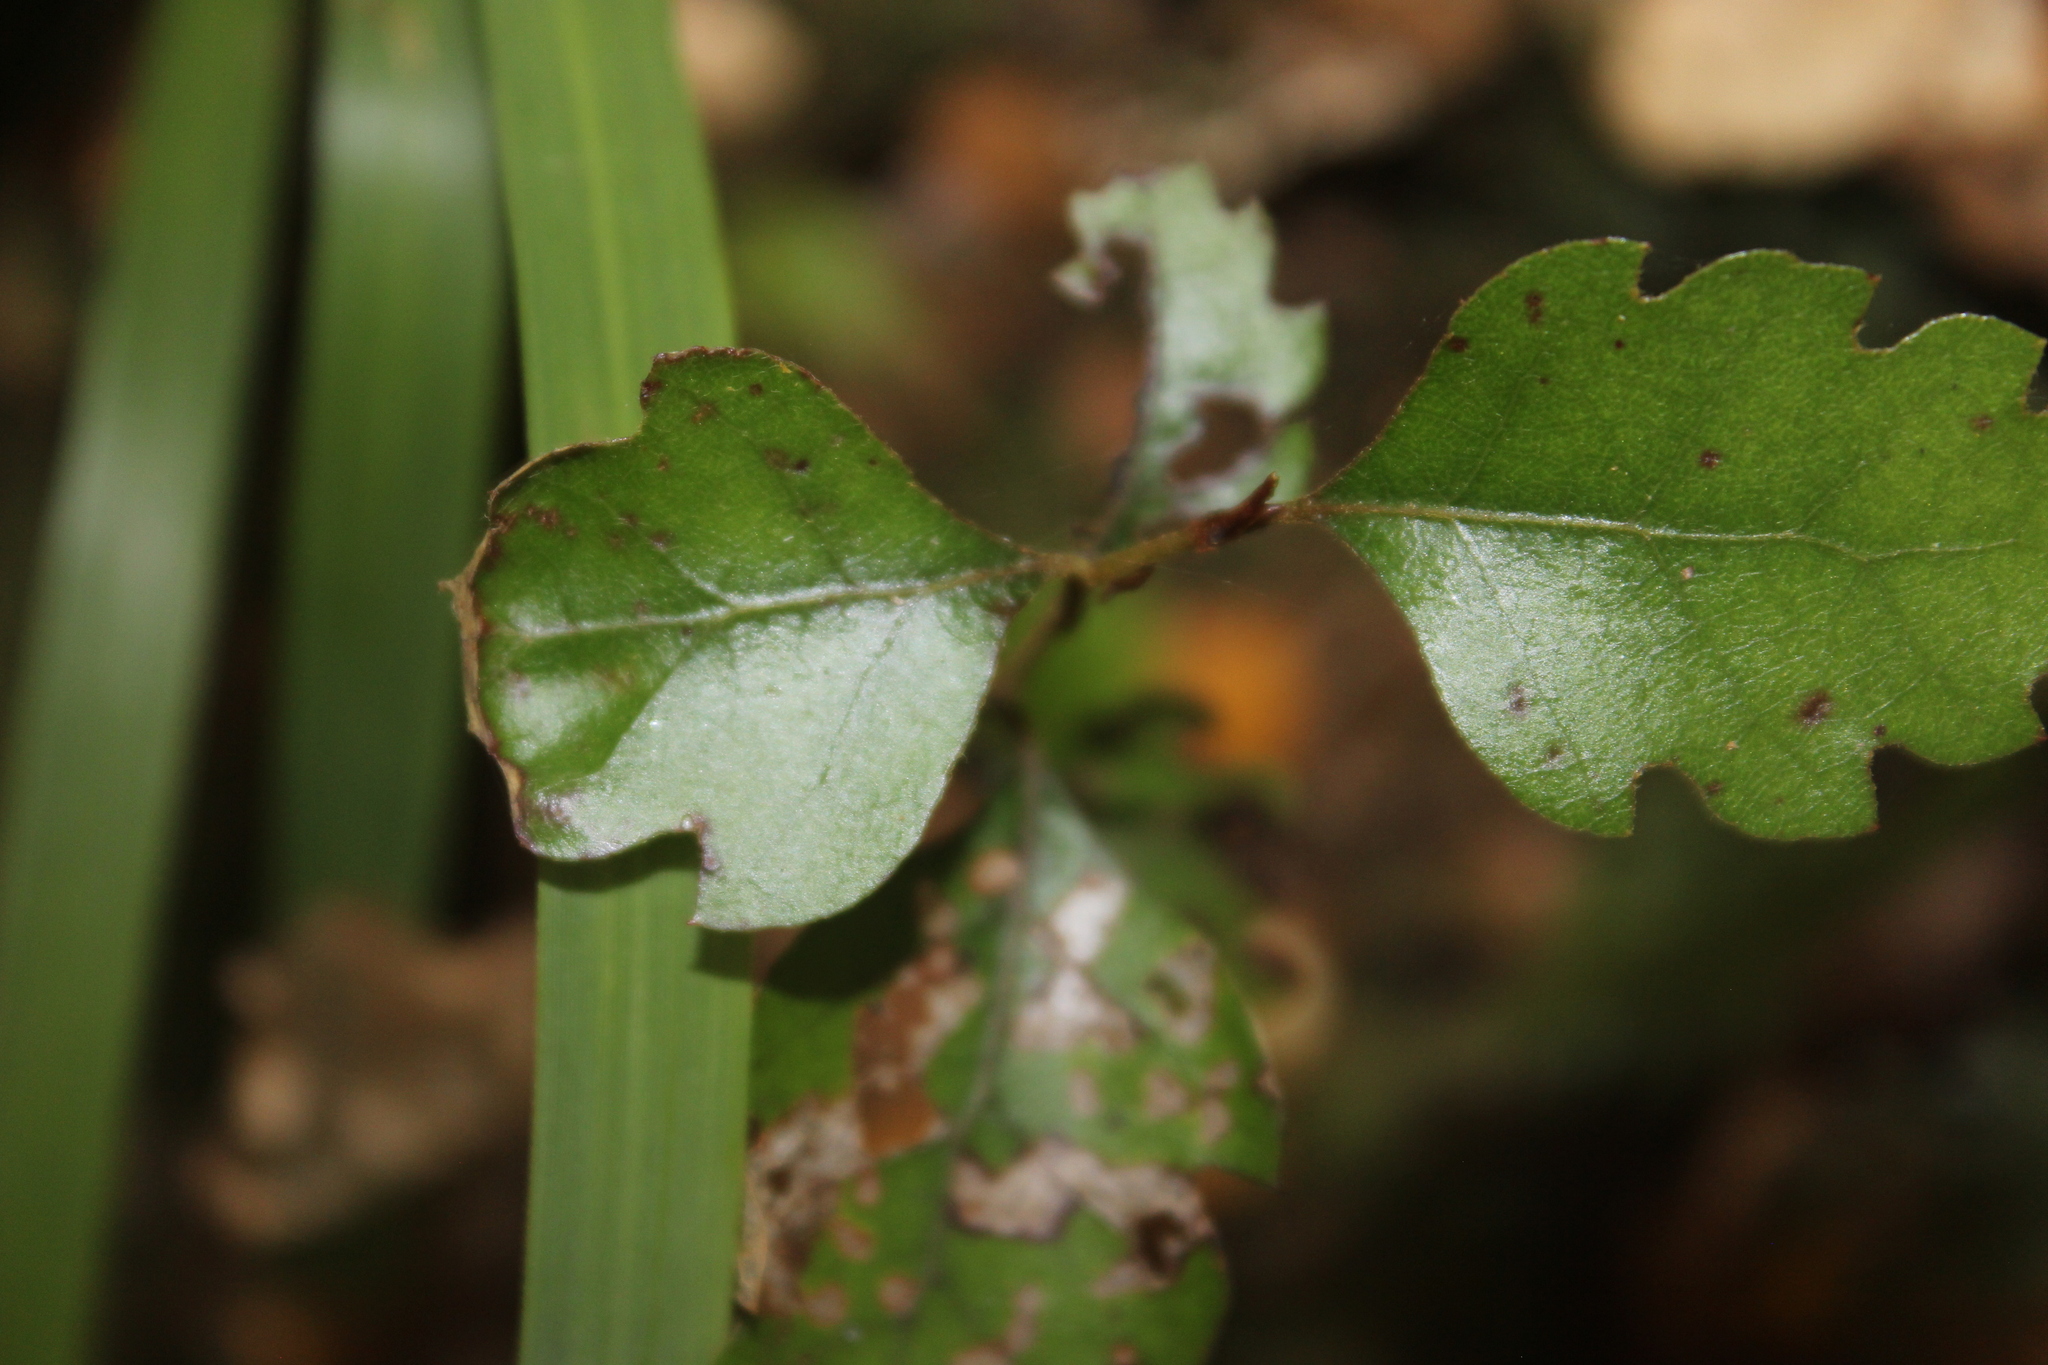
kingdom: Plantae
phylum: Tracheophyta
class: Magnoliopsida
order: Fagales
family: Nothofagaceae
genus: Nothofagus
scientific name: Nothofagus fusca
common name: Red beech
